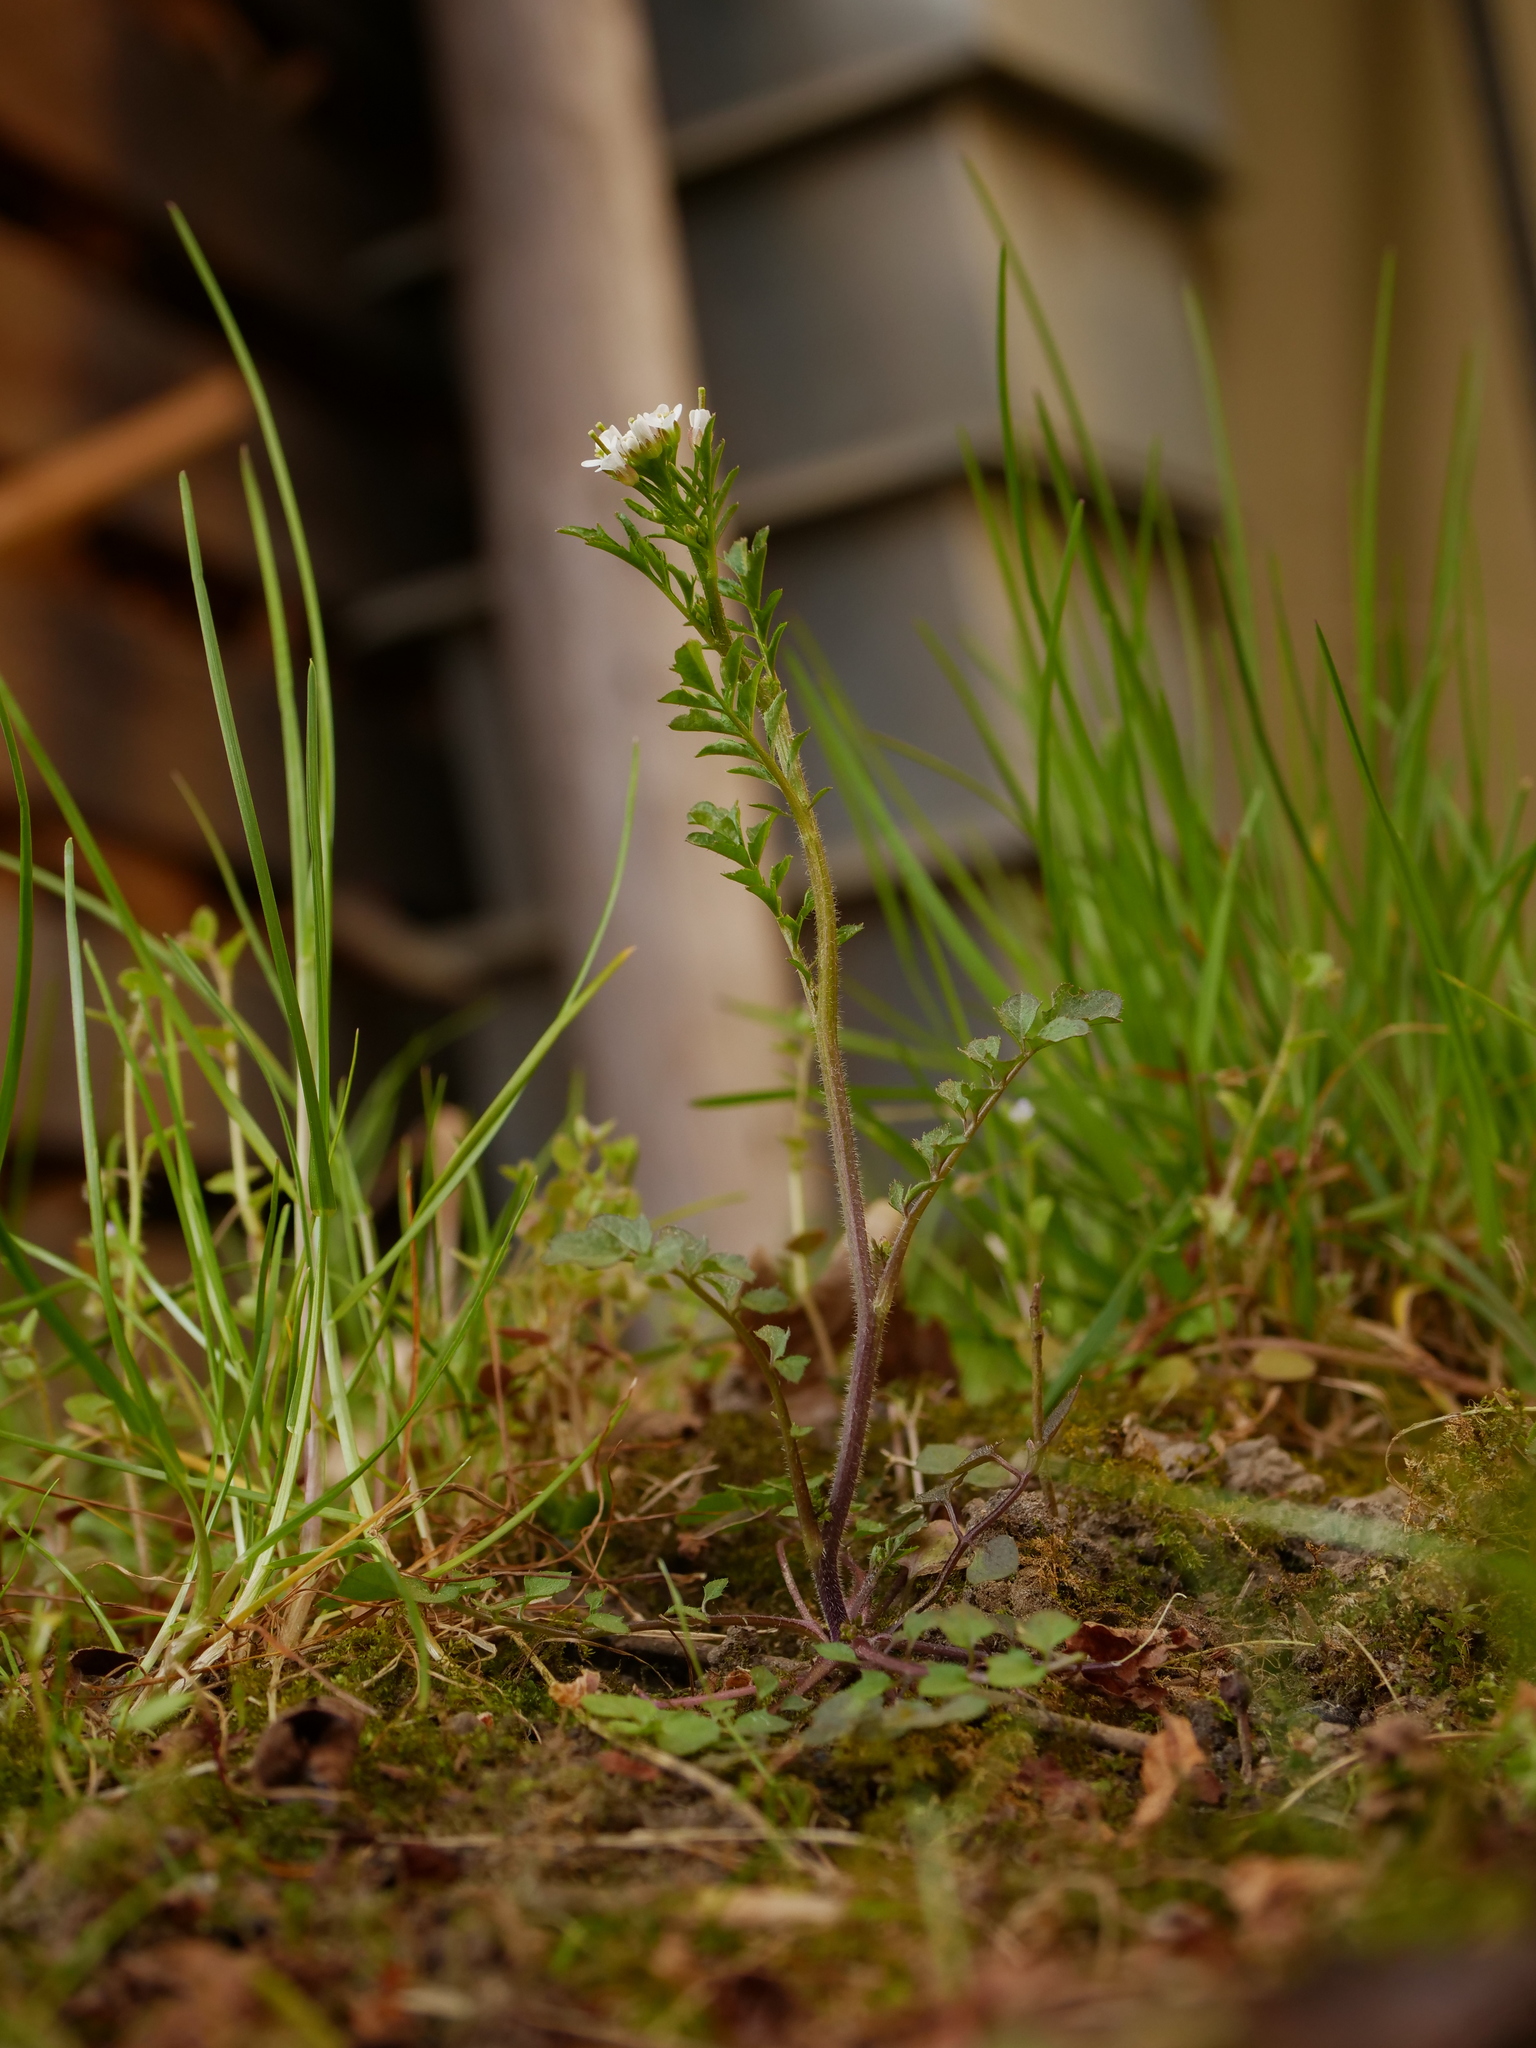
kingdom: Plantae
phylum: Tracheophyta
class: Magnoliopsida
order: Brassicales
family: Brassicaceae
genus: Cardamine
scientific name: Cardamine flexuosa
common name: Woodland bittercress
